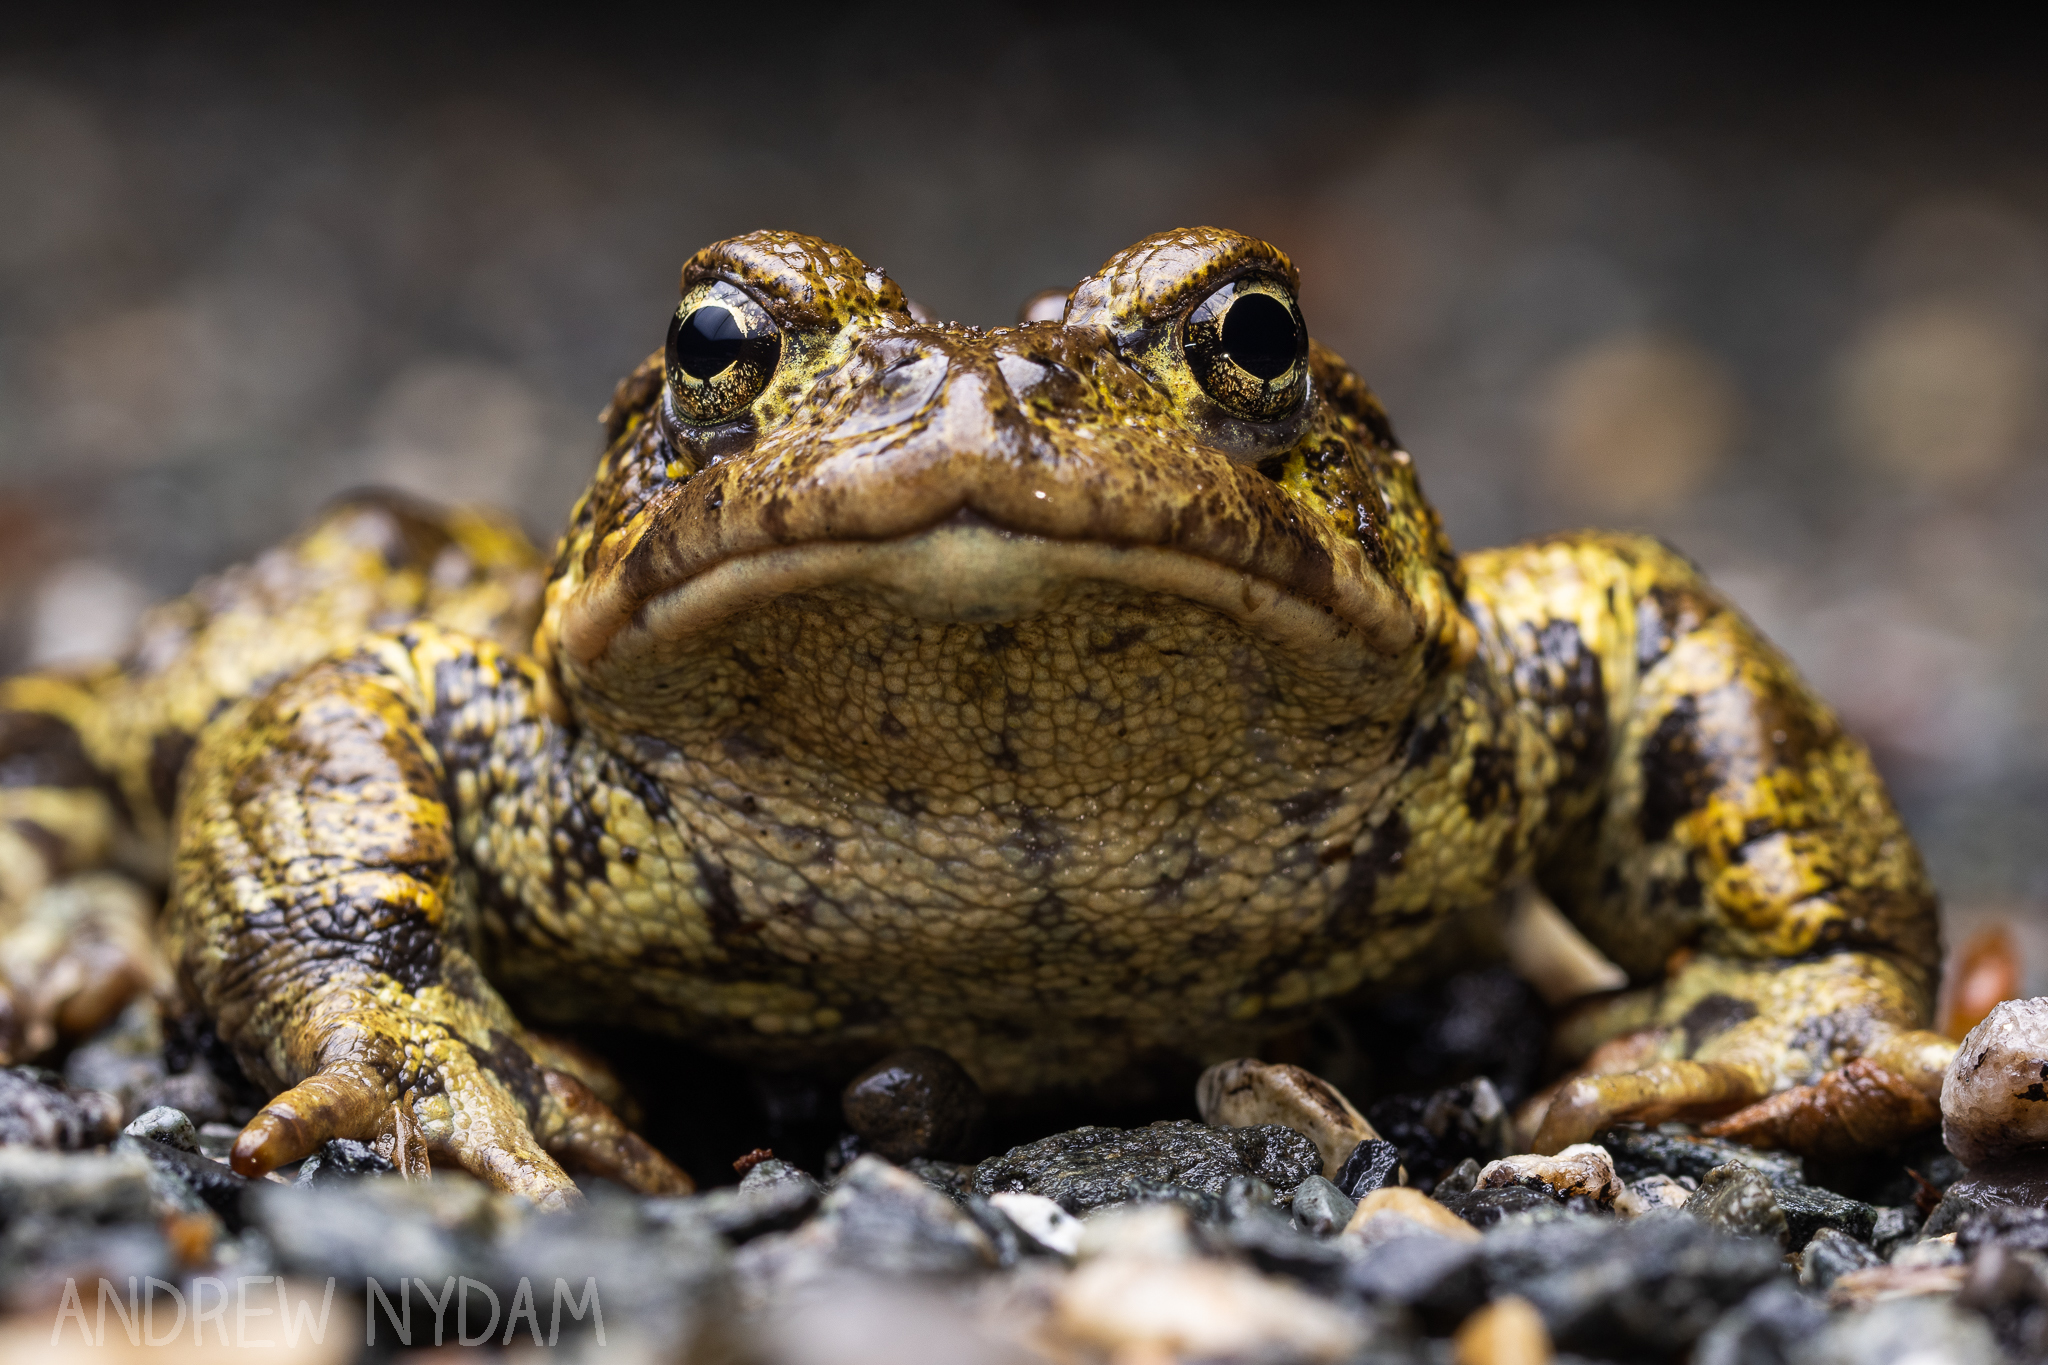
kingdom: Animalia
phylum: Chordata
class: Amphibia
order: Anura
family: Bufonidae
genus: Anaxyrus
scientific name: Anaxyrus boreas
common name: Western toad
